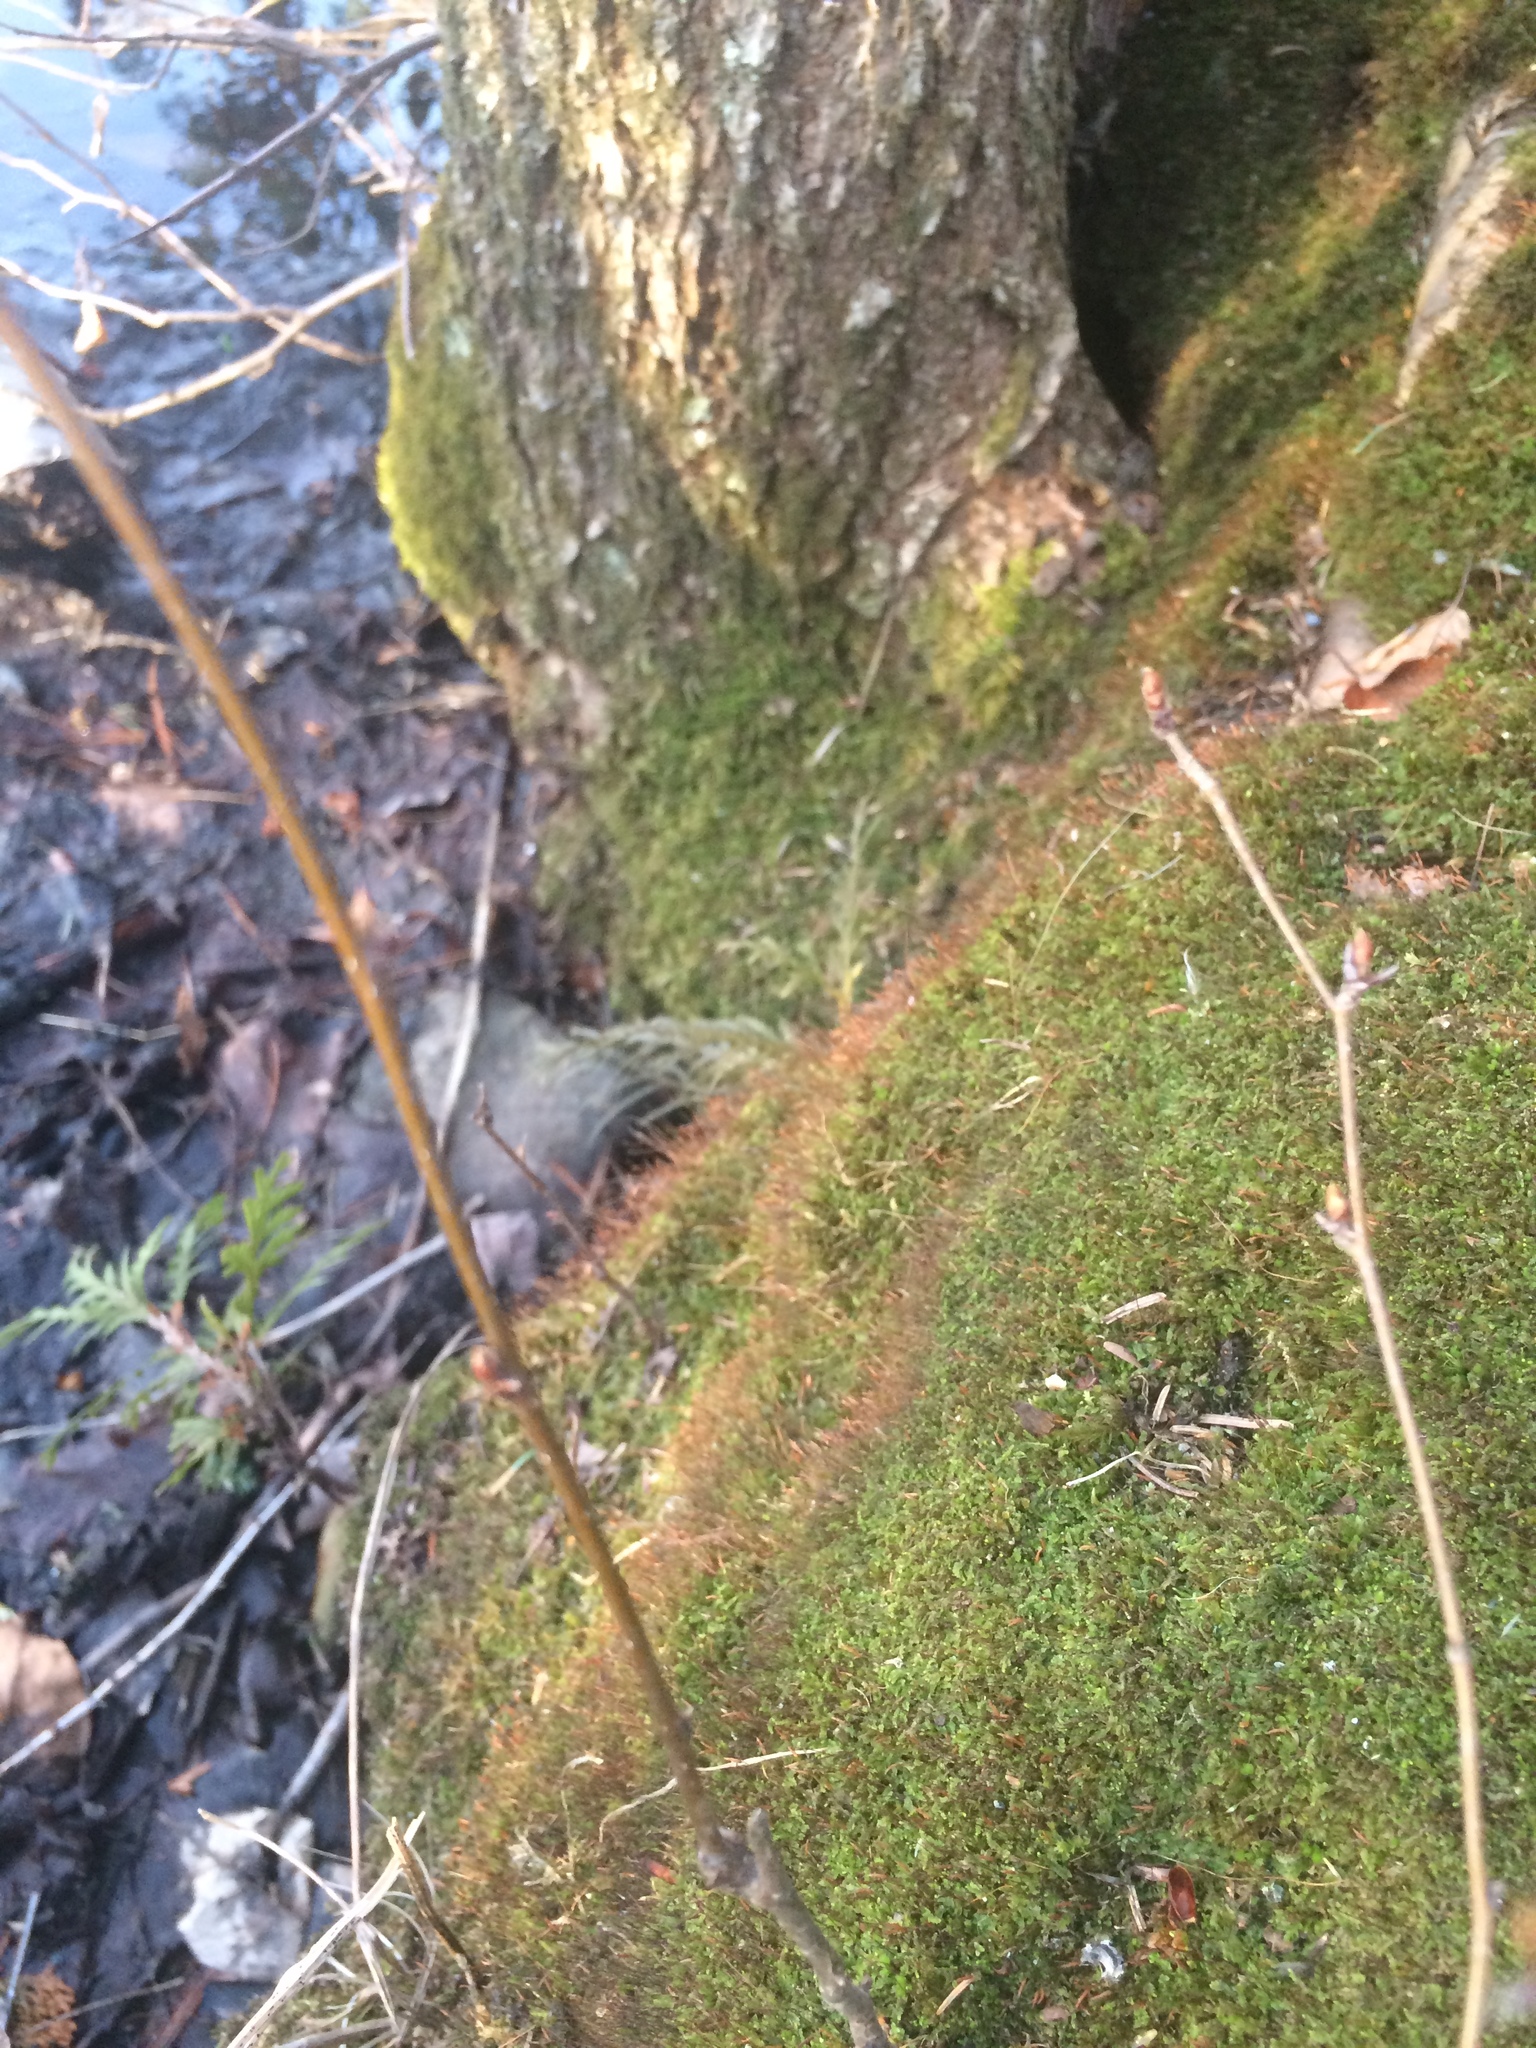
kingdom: Plantae
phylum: Bryophyta
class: Polytrichopsida
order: Tetraphidales
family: Tetraphidaceae
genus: Tetraphis
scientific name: Tetraphis pellucida
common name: Common four-toothed moss
